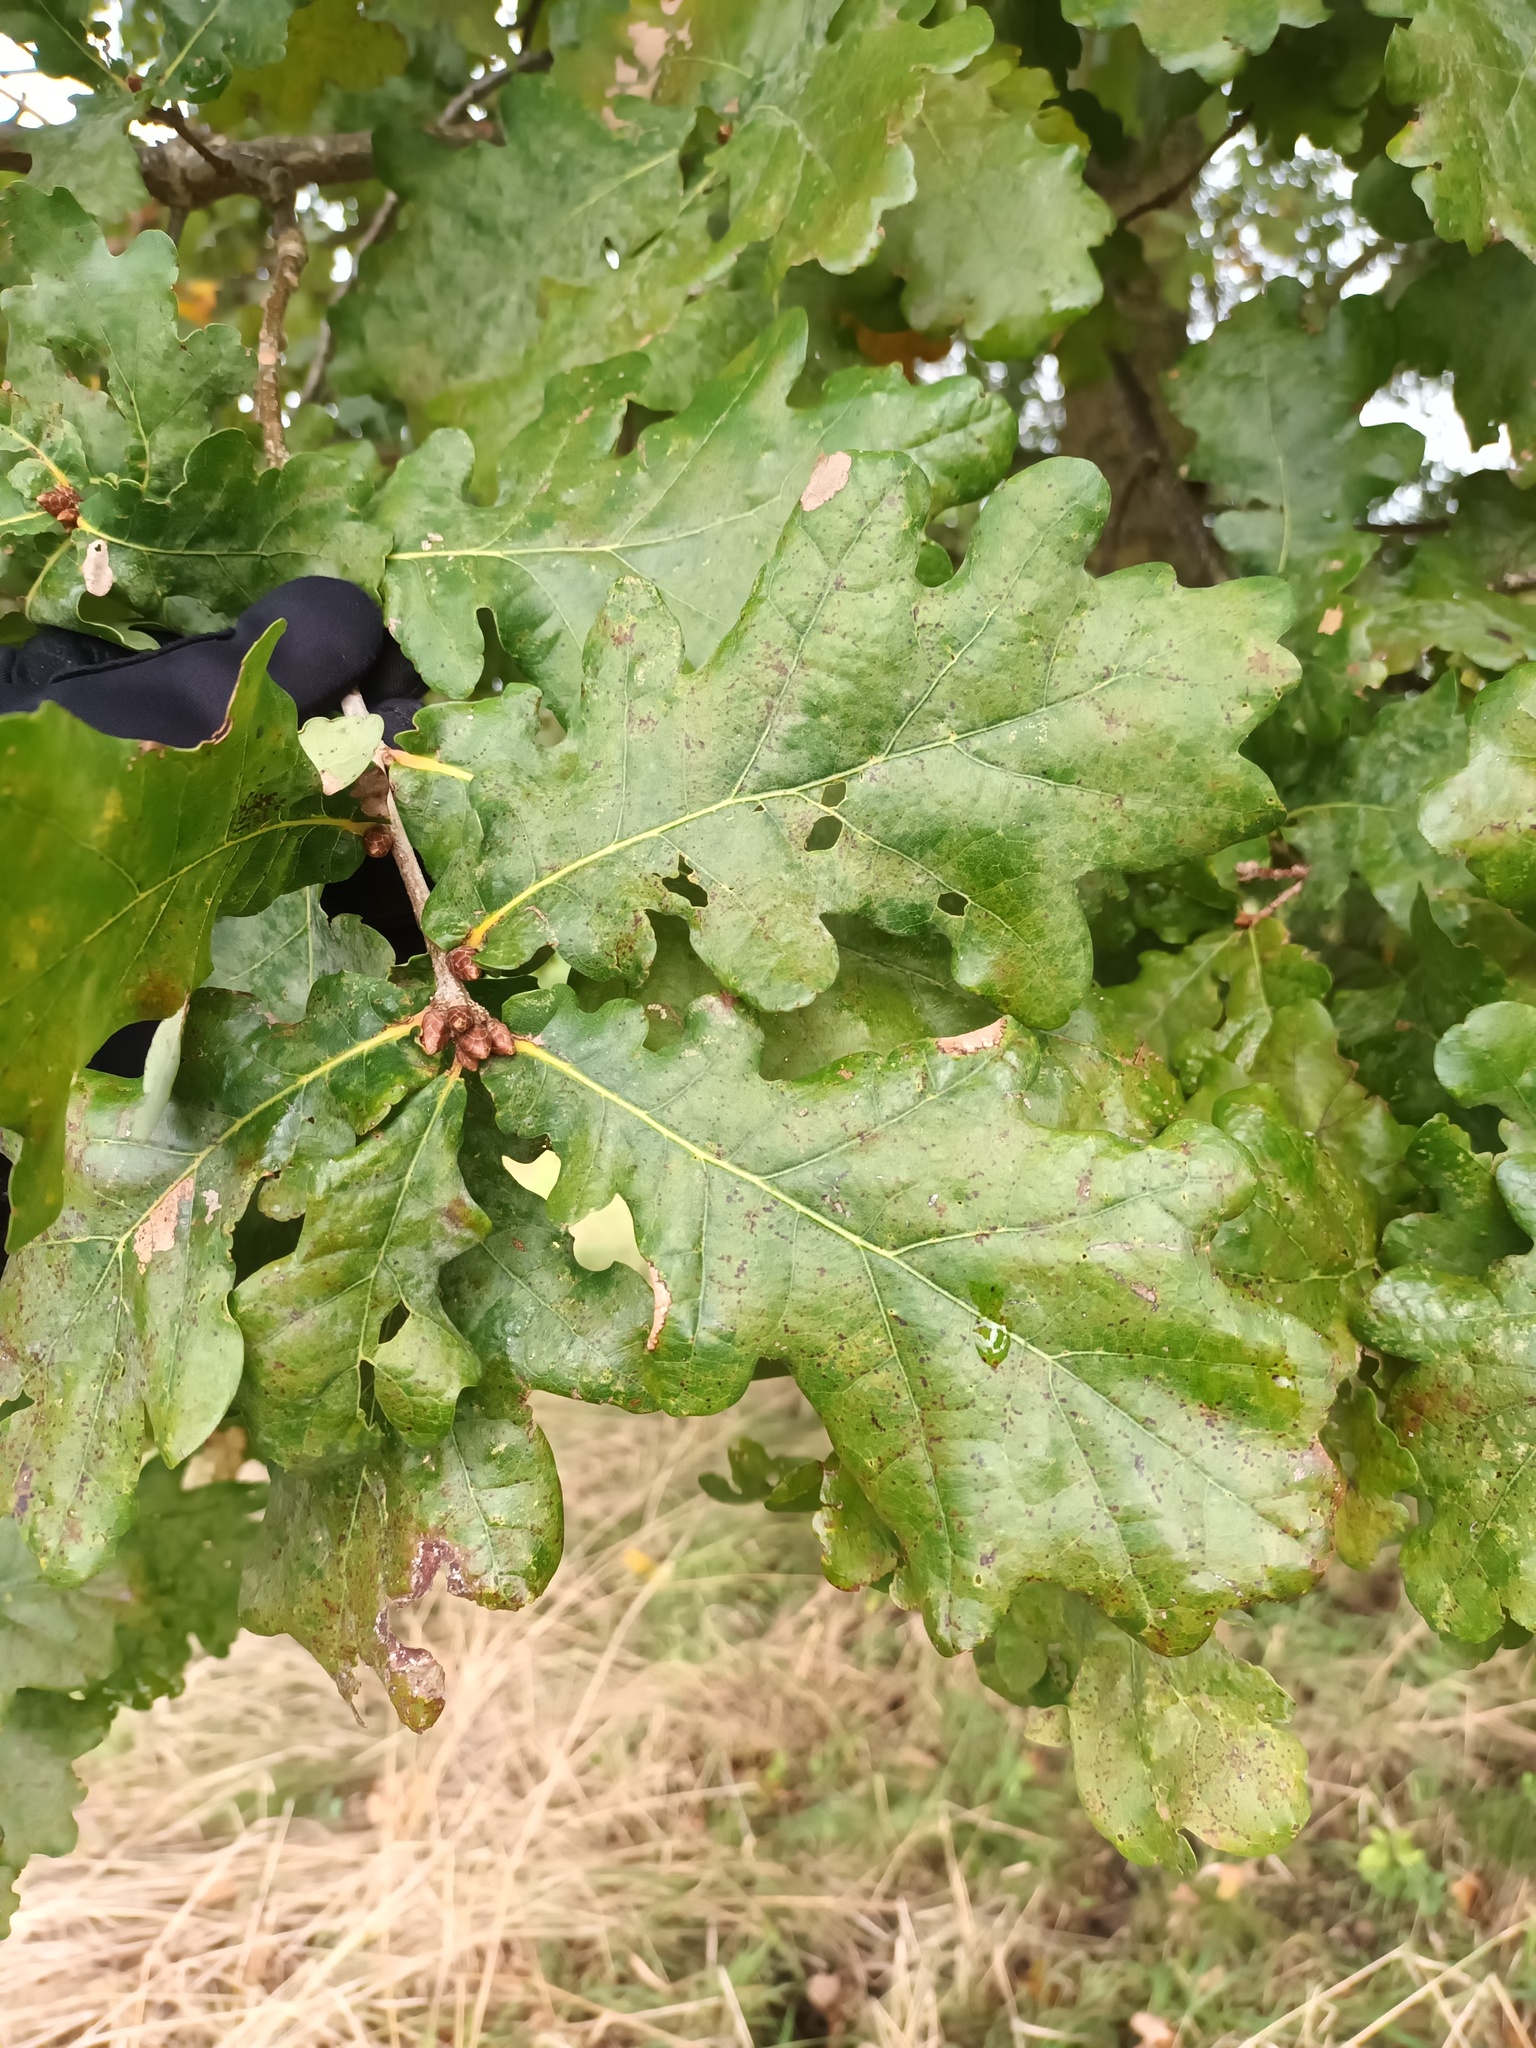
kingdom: Plantae
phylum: Tracheophyta
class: Magnoliopsida
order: Fagales
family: Fagaceae
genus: Quercus
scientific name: Quercus robur
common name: Pedunculate oak
